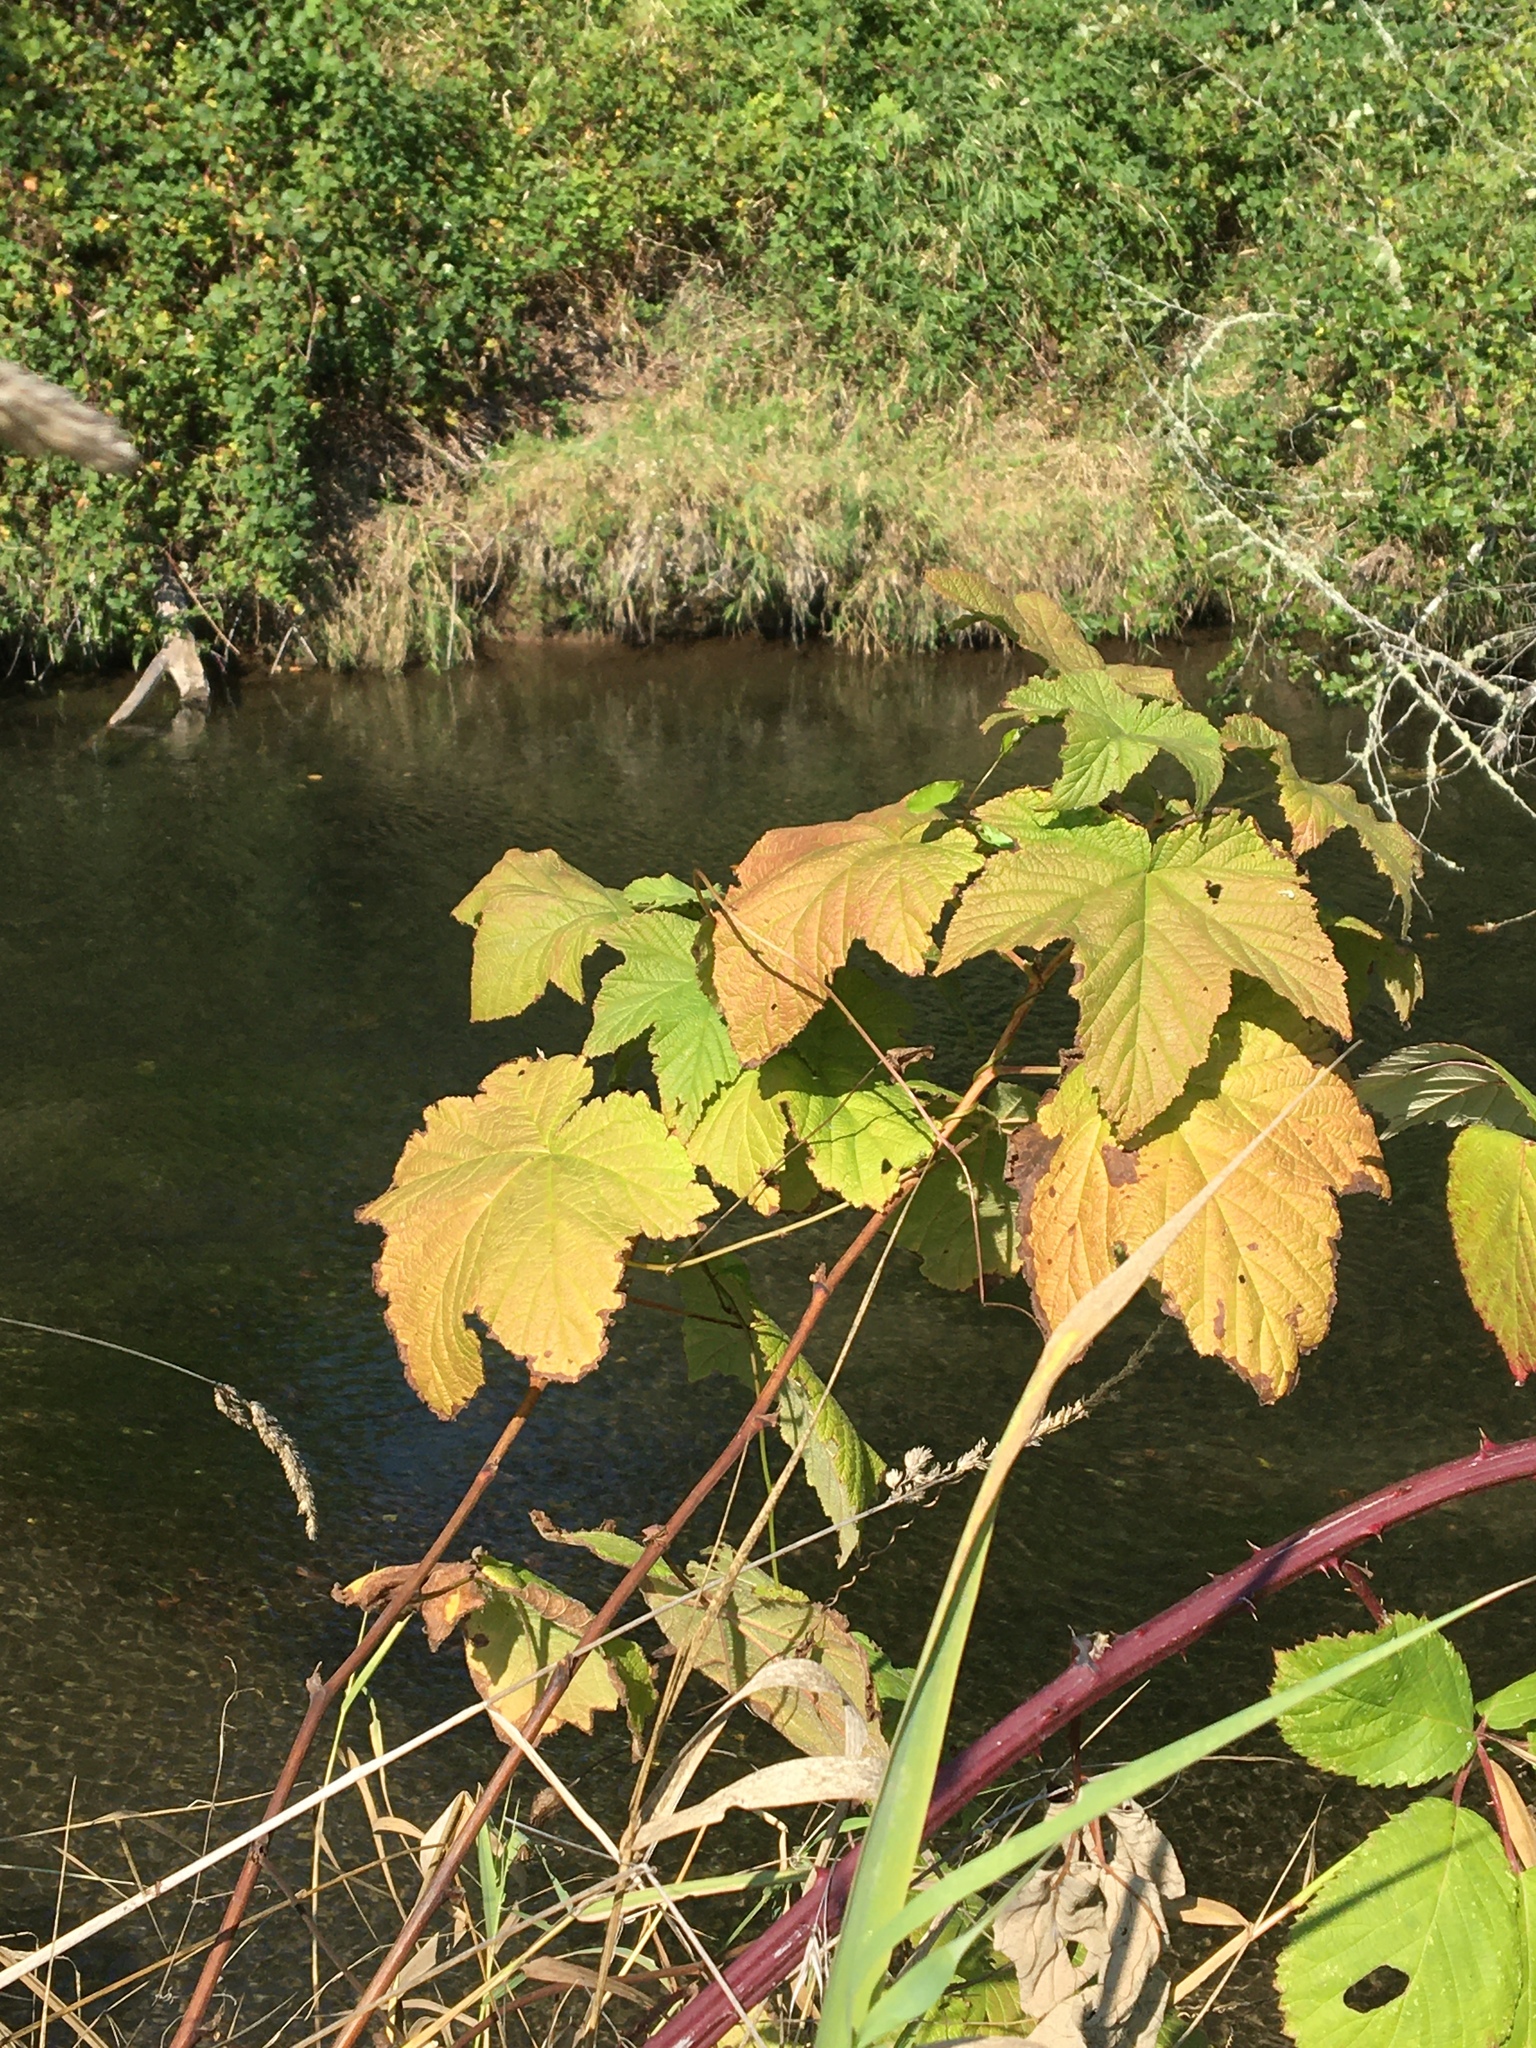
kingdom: Plantae
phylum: Tracheophyta
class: Magnoliopsida
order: Rosales
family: Rosaceae
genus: Rubus
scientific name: Rubus parviflorus
